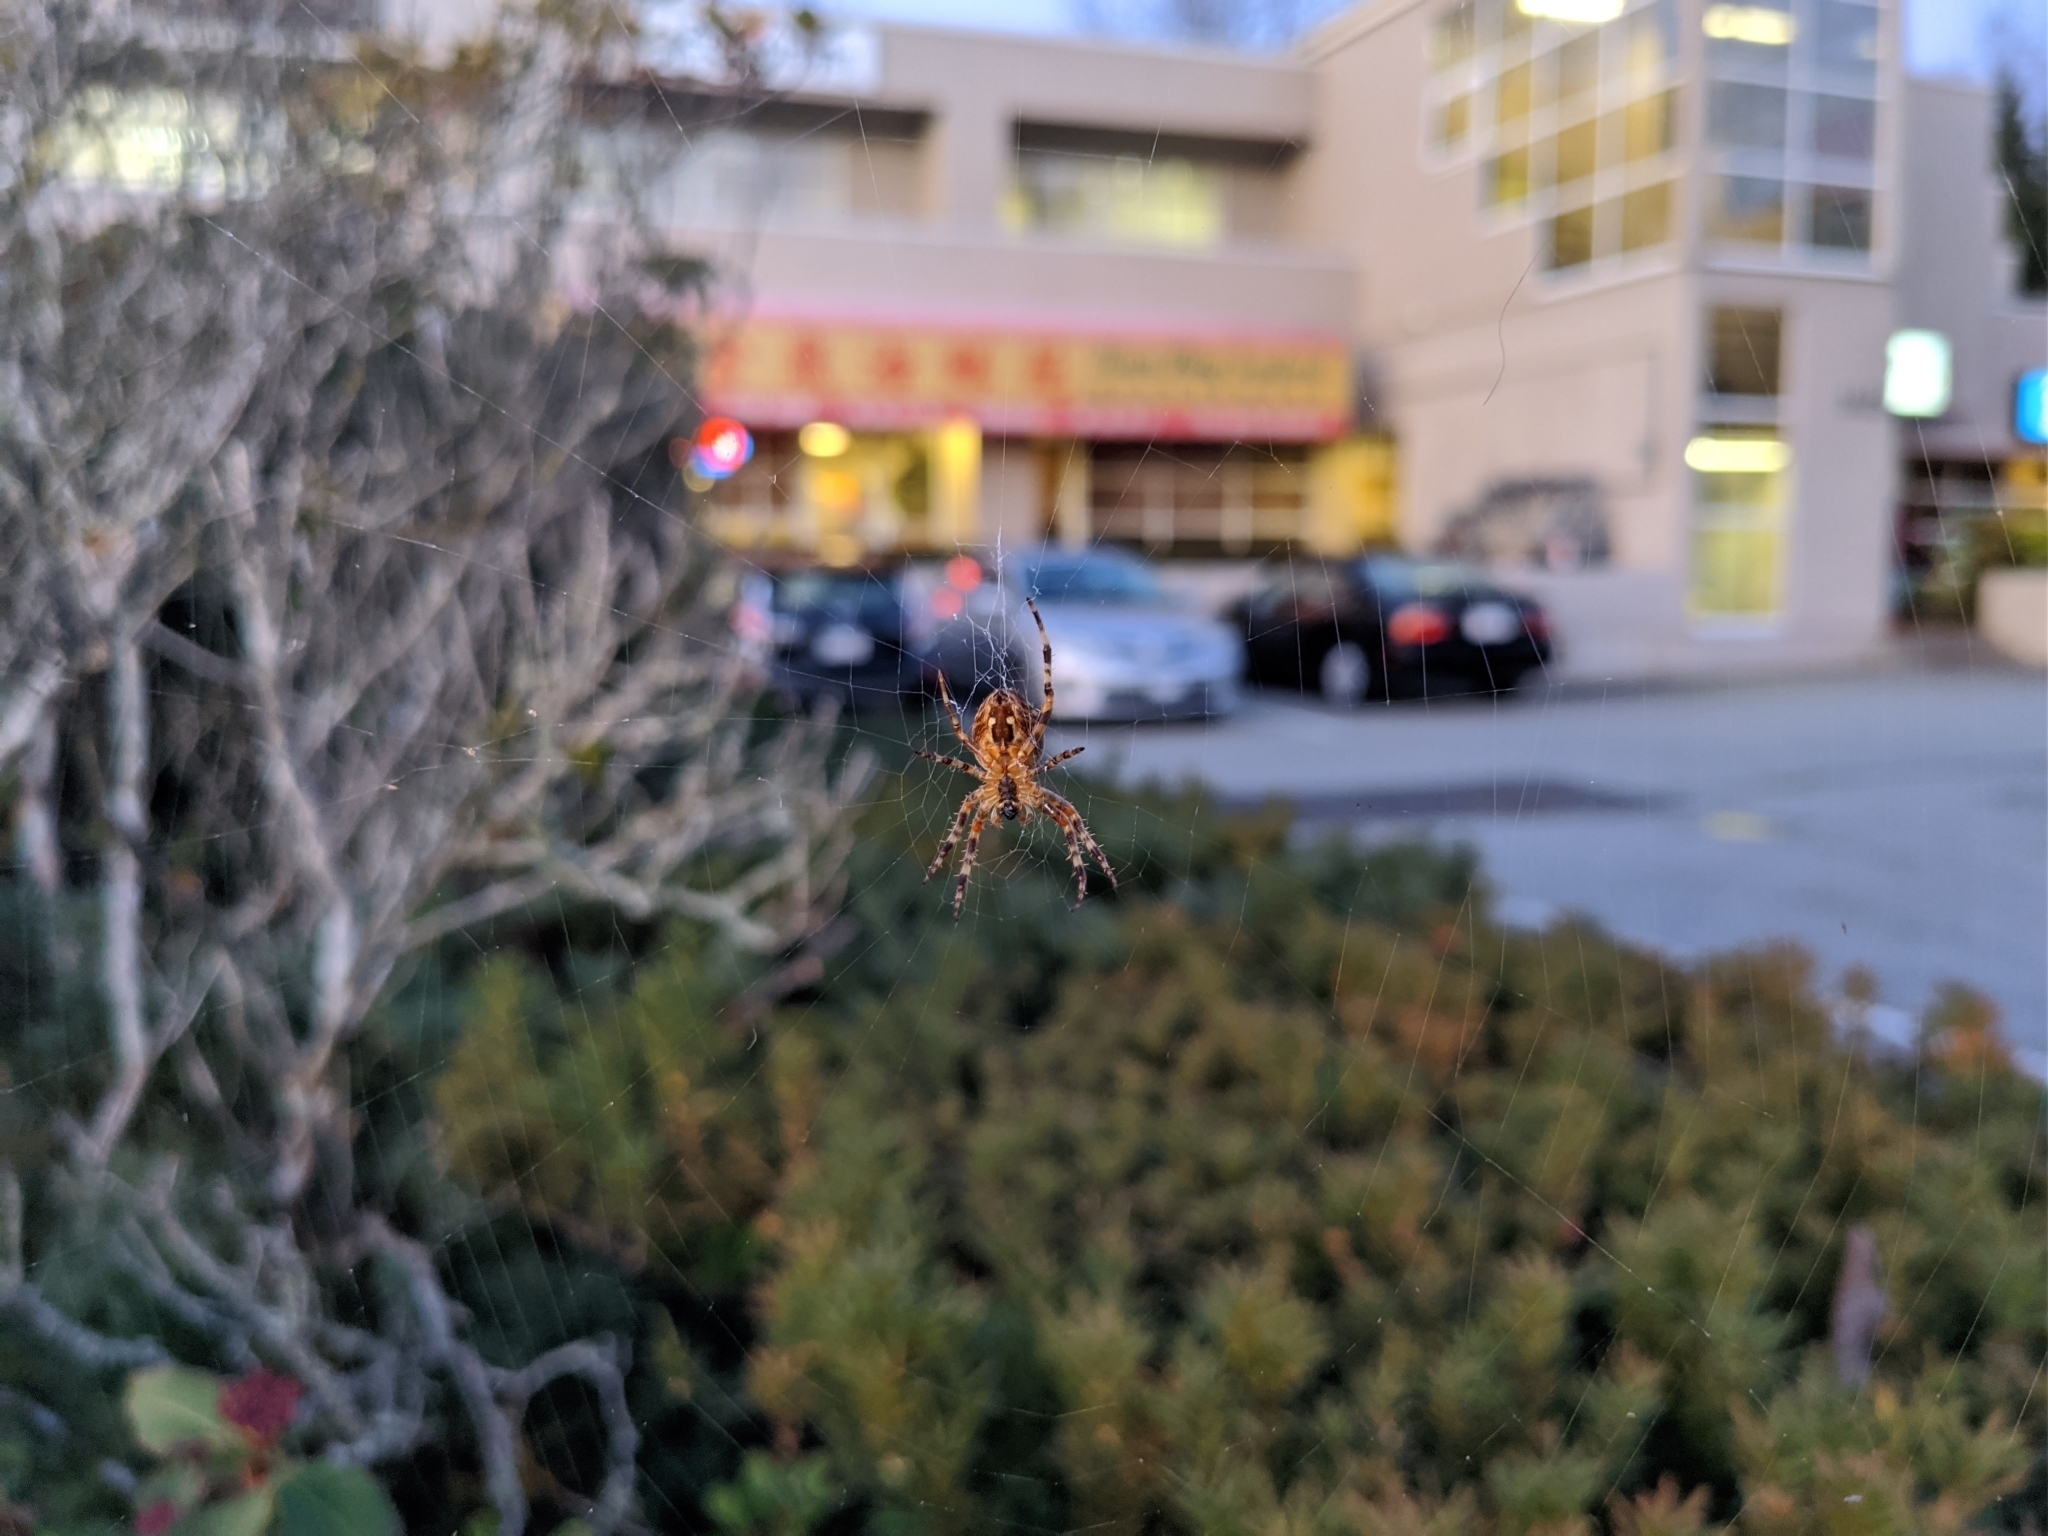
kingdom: Animalia
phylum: Arthropoda
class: Arachnida
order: Araneae
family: Araneidae
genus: Araneus
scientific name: Araneus diadematus
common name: Cross orbweaver
